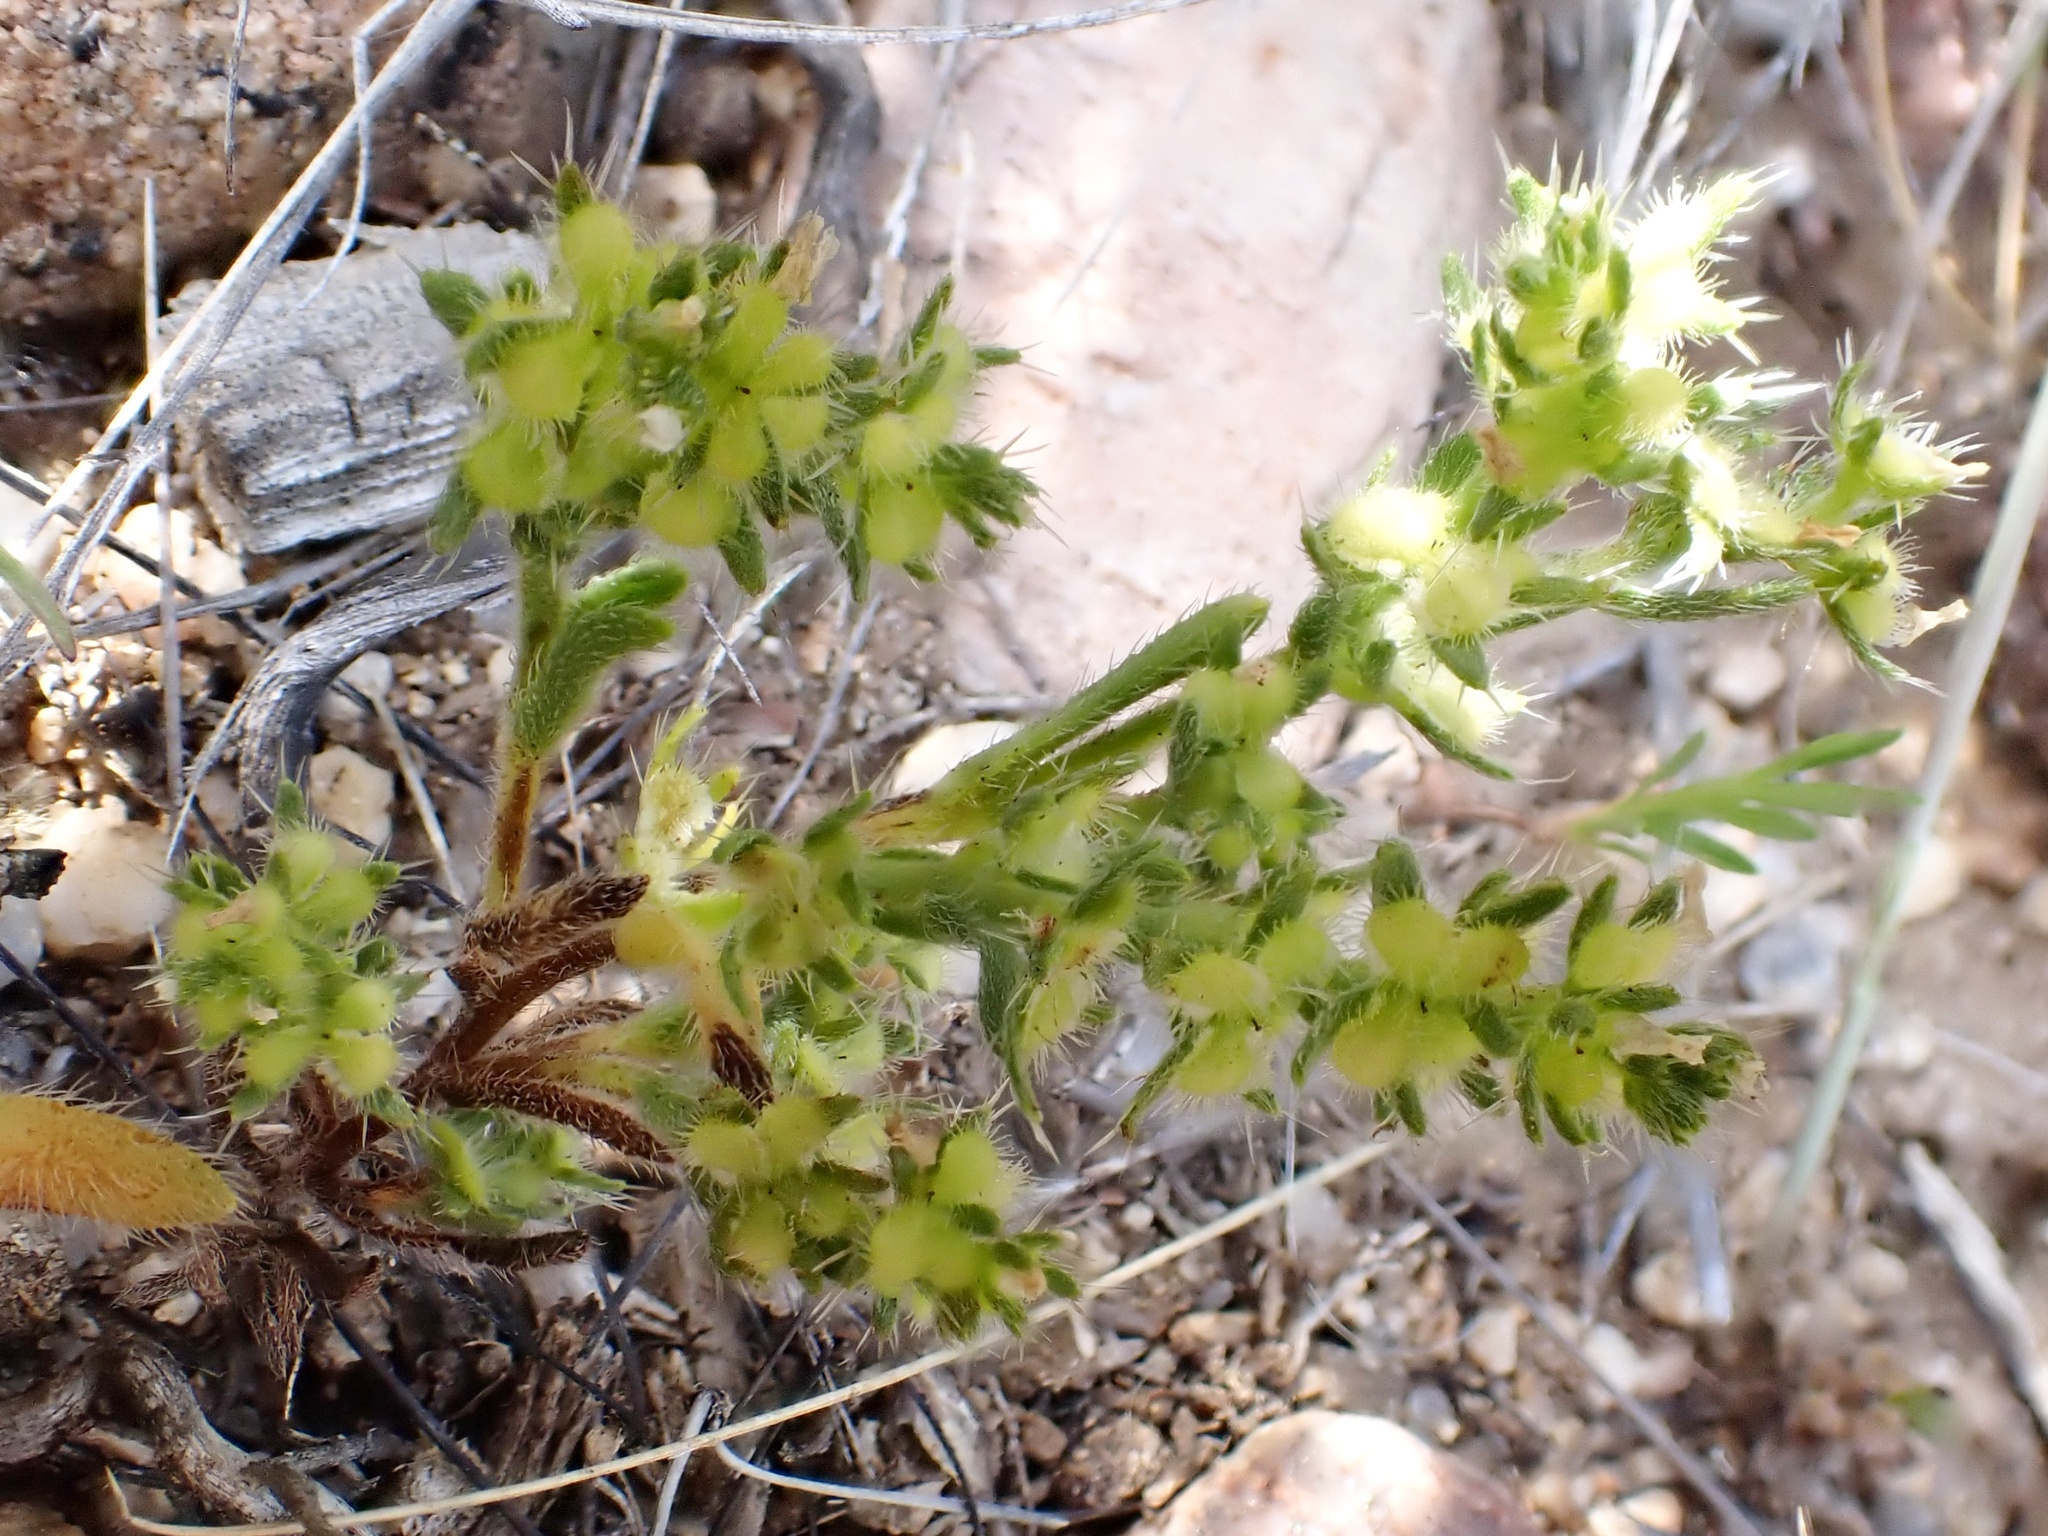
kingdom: Plantae
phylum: Tracheophyta
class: Magnoliopsida
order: Boraginales
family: Boraginaceae
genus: Pectocarya
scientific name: Pectocarya setosa
